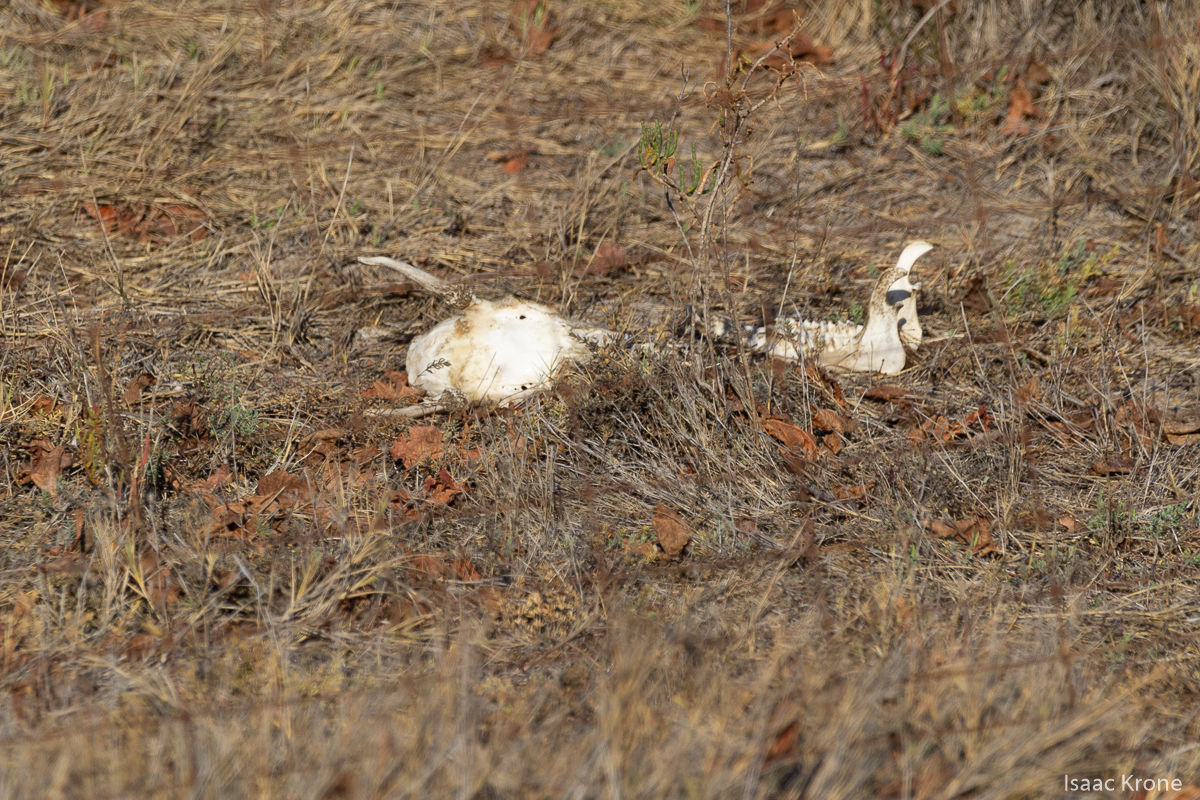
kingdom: Animalia
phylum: Chordata
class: Mammalia
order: Artiodactyla
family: Cervidae
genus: Odocoileus
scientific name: Odocoileus hemionus
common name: Mule deer
